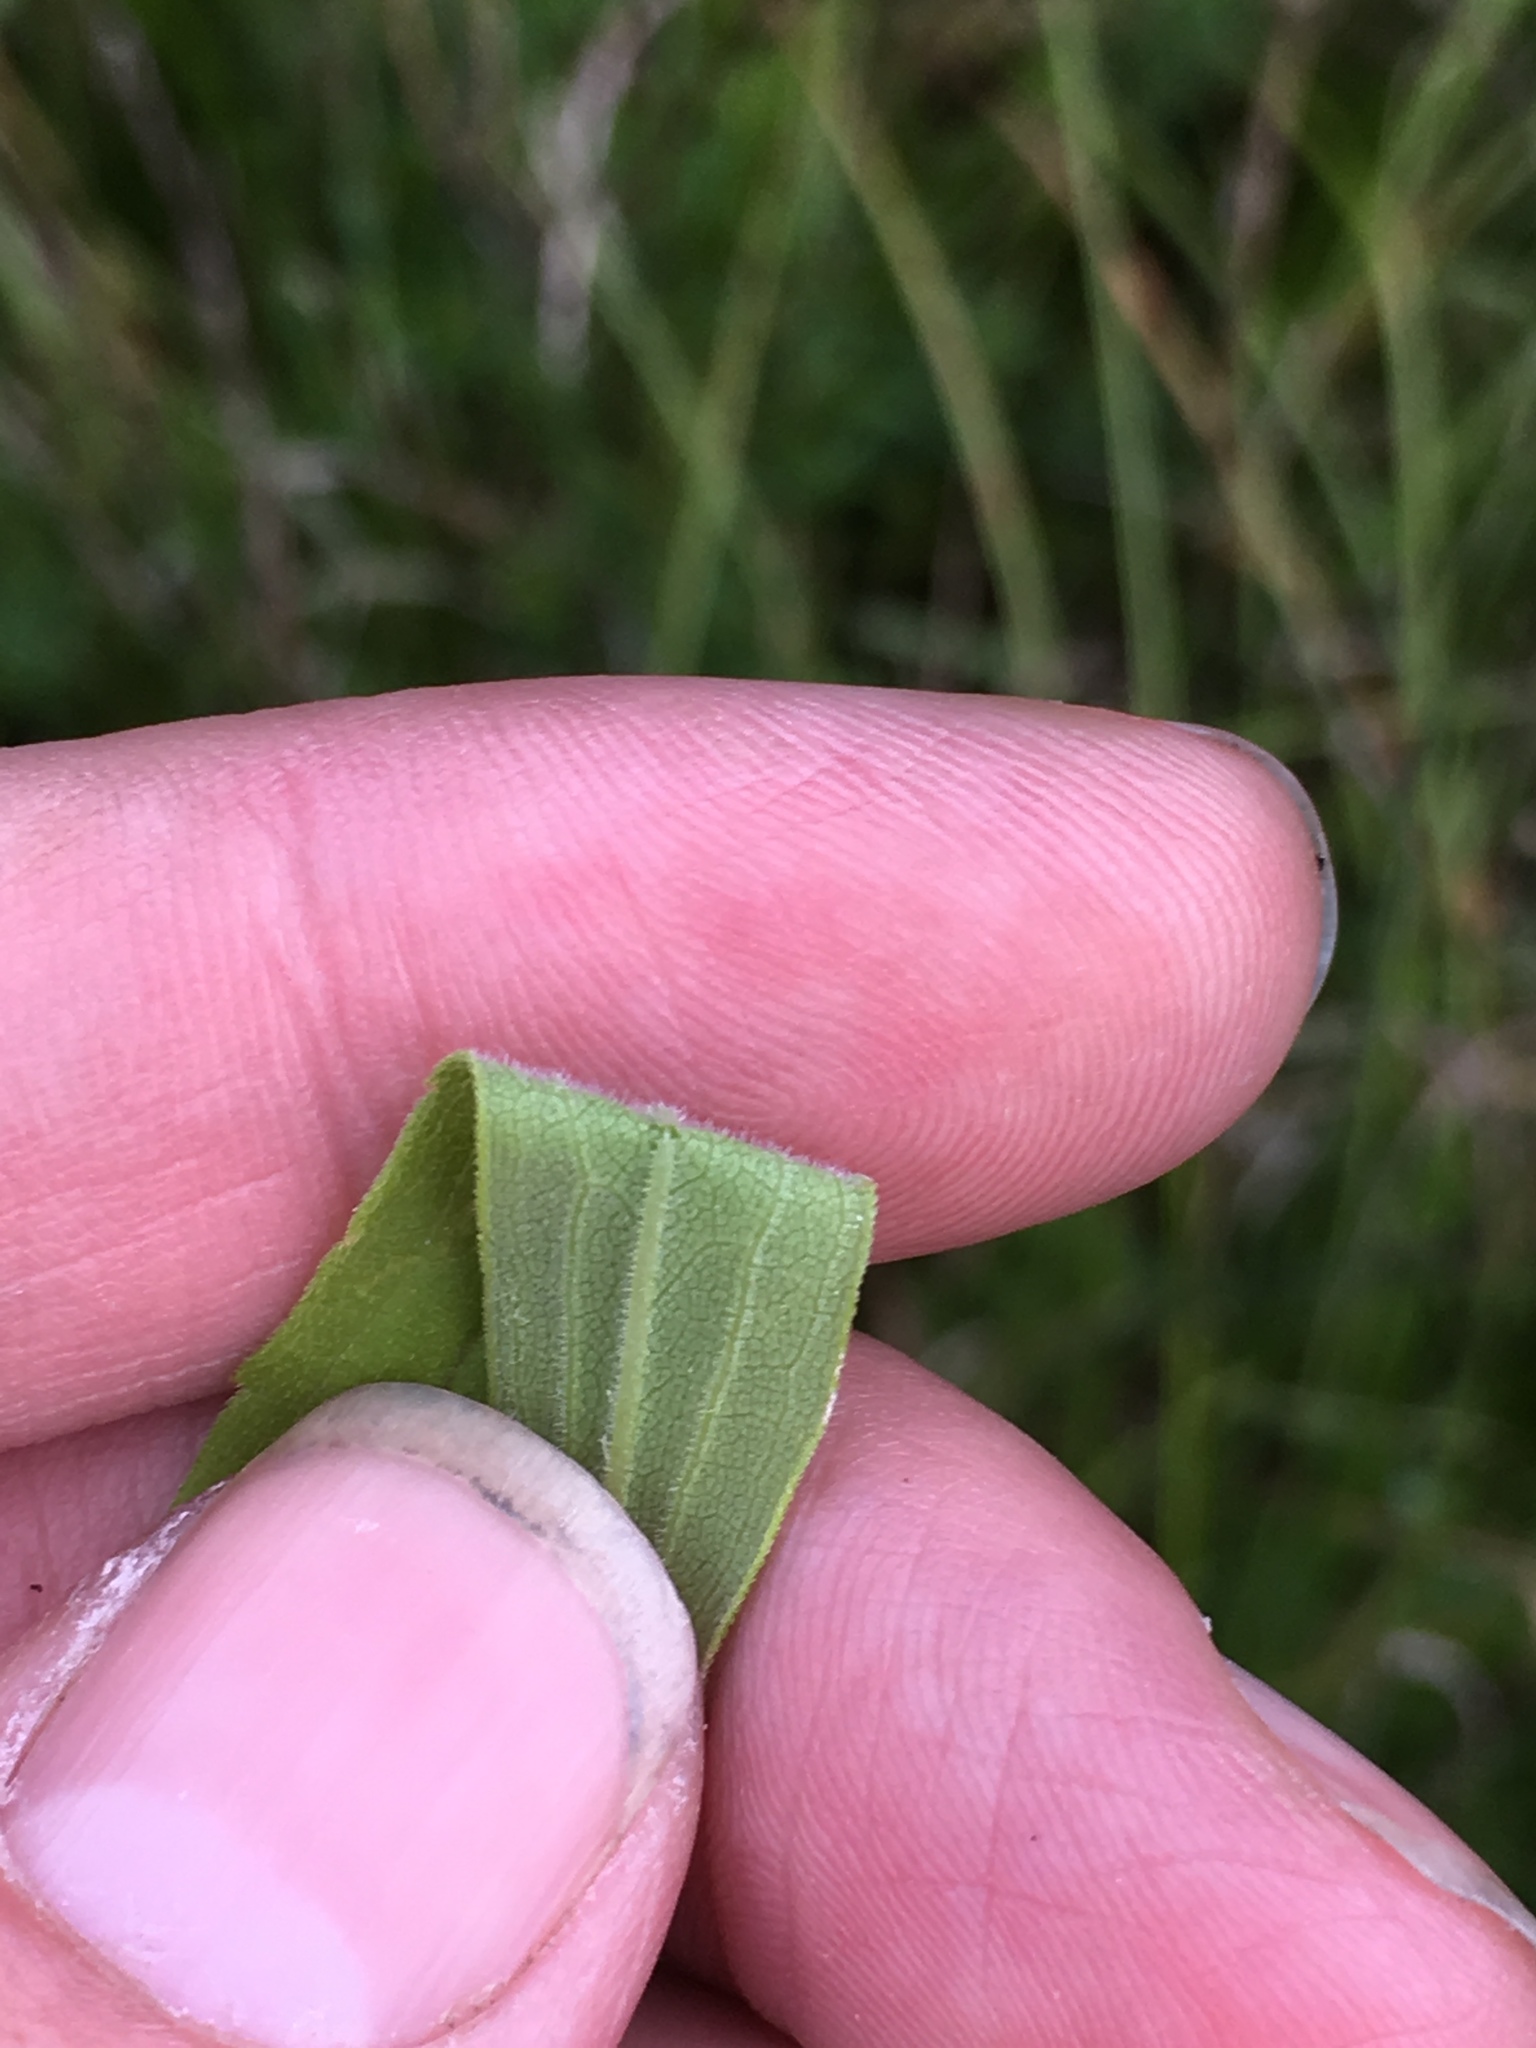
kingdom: Animalia
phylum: Arthropoda
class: Insecta
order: Diptera
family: Tephritidae
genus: Eurosta
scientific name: Eurosta solidaginis
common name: Goldenrod gall fly
